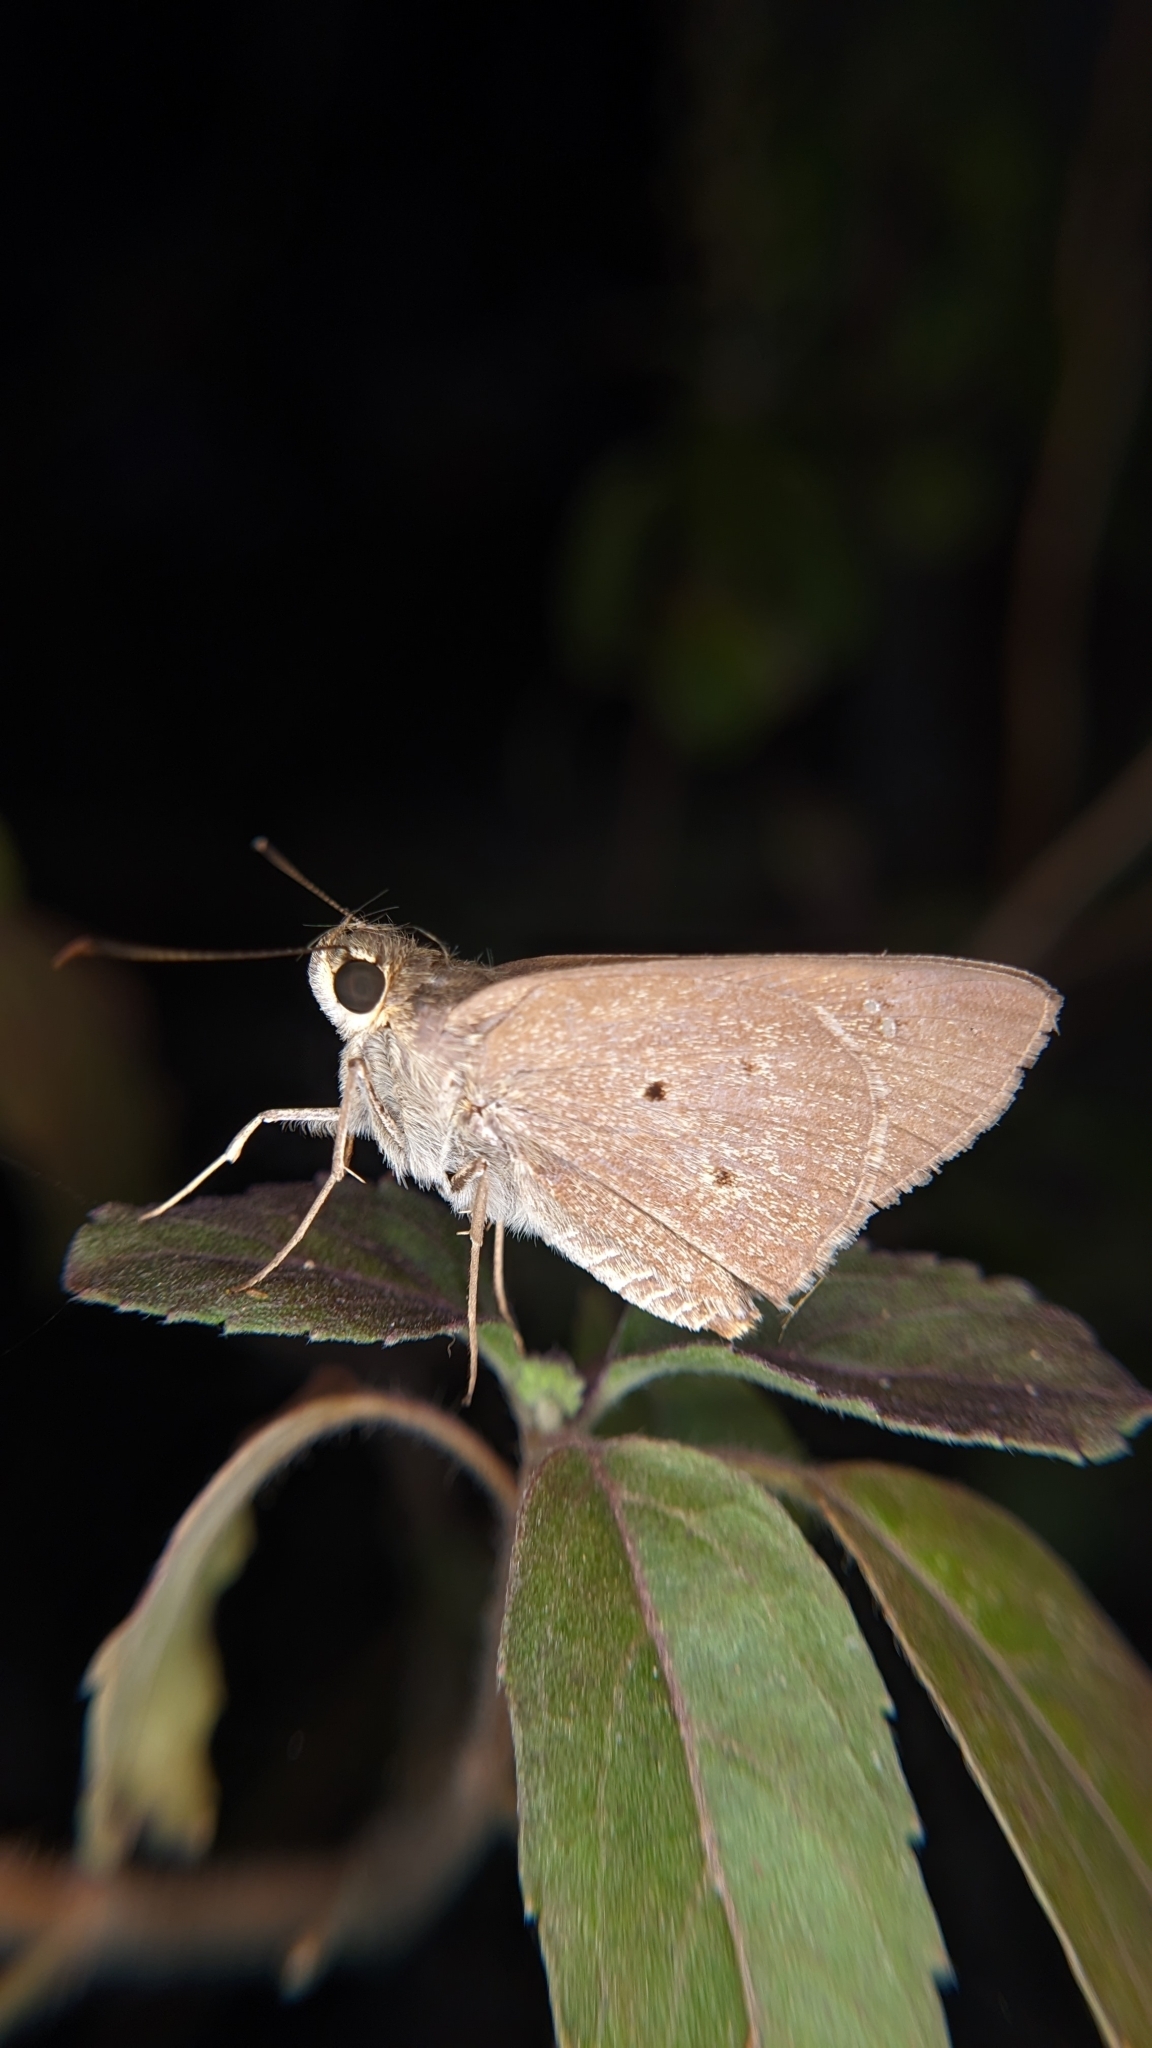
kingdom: Animalia
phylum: Arthropoda
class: Insecta
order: Lepidoptera
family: Hesperiidae
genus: Suastus
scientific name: Suastus gremius
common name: Indian palm bob
